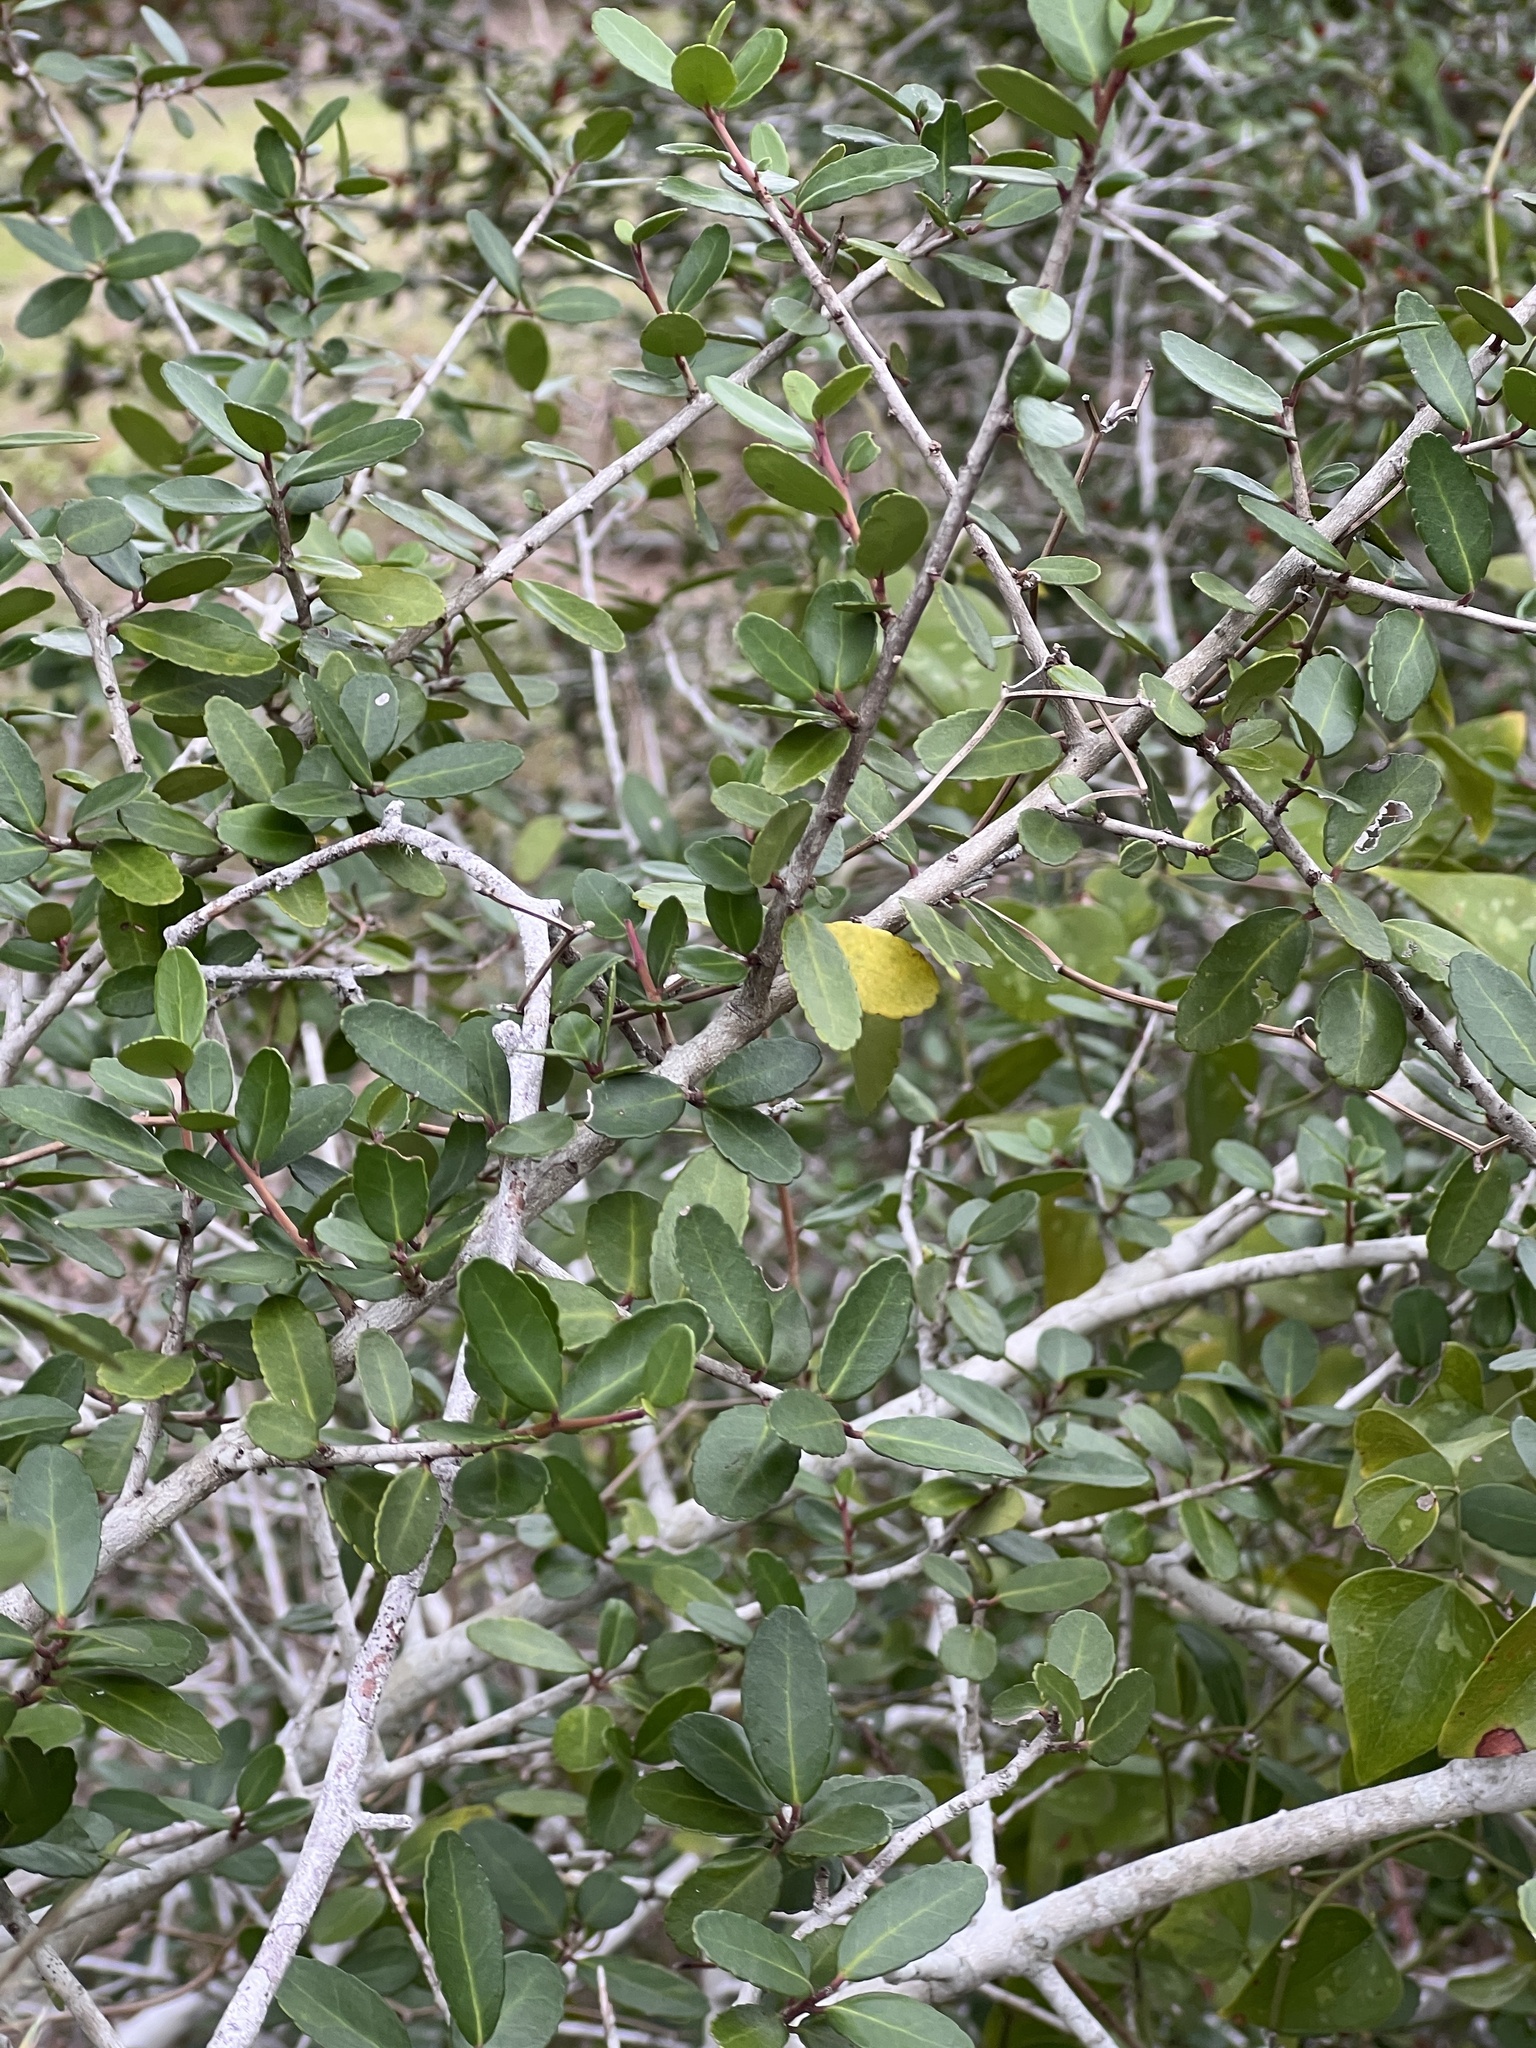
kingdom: Plantae
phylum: Tracheophyta
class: Magnoliopsida
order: Aquifoliales
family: Aquifoliaceae
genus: Ilex
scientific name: Ilex vomitoria
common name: Yaupon holly
